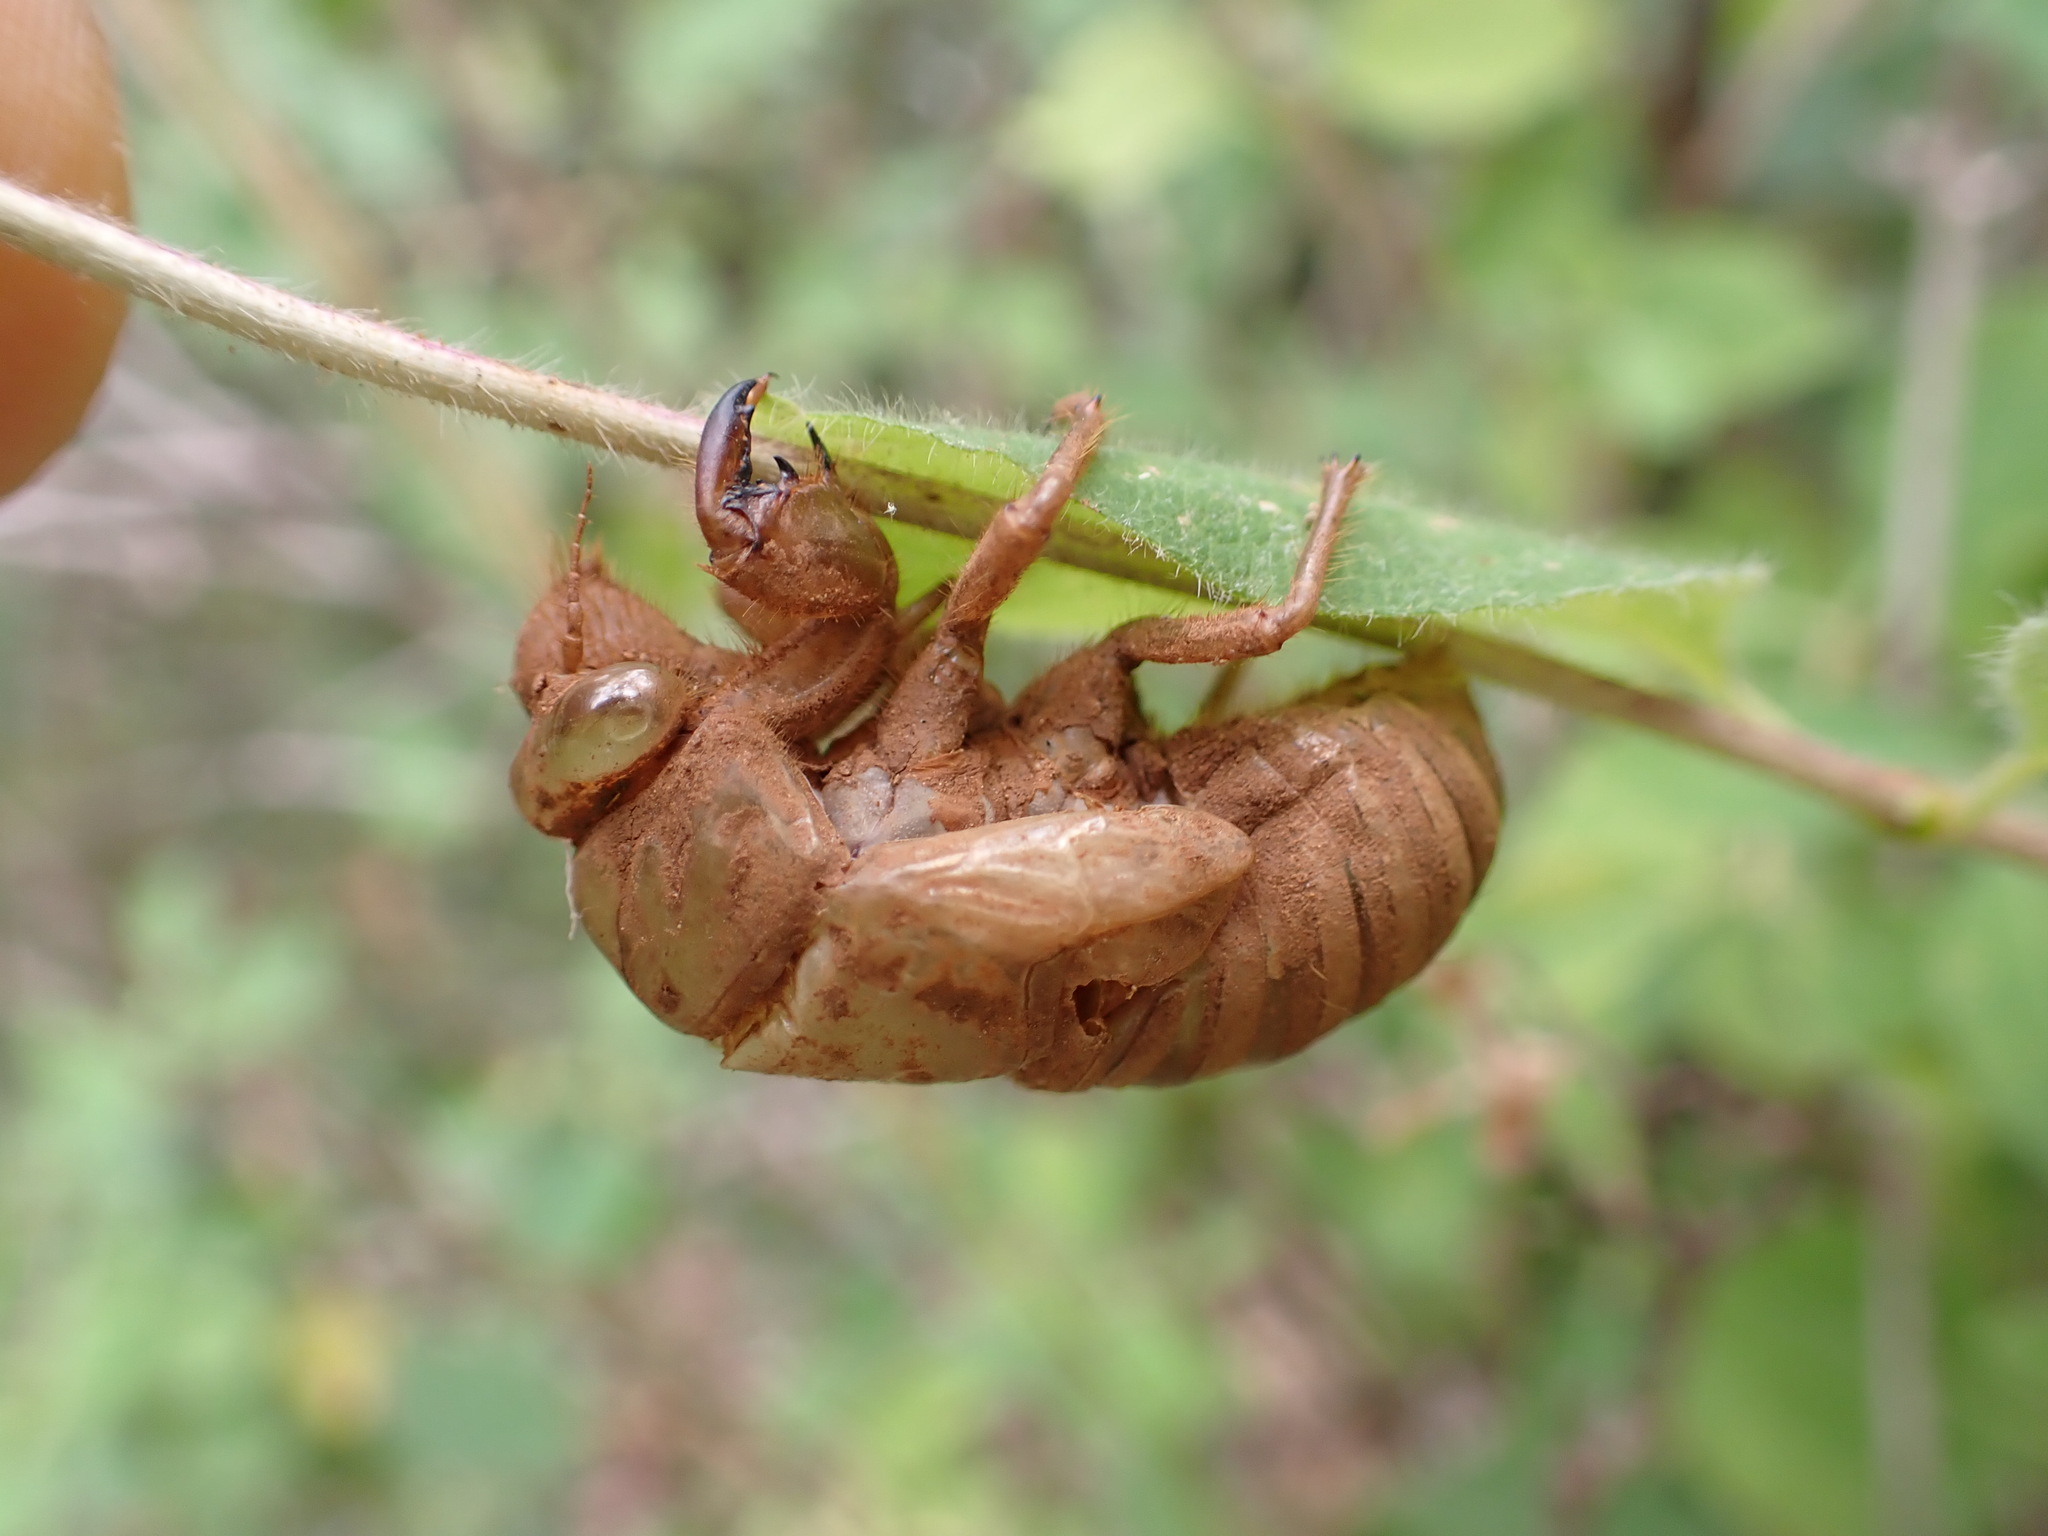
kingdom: Animalia
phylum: Arthropoda
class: Insecta
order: Hemiptera
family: Cicadidae
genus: Lyristes
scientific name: Lyristes plebejus
